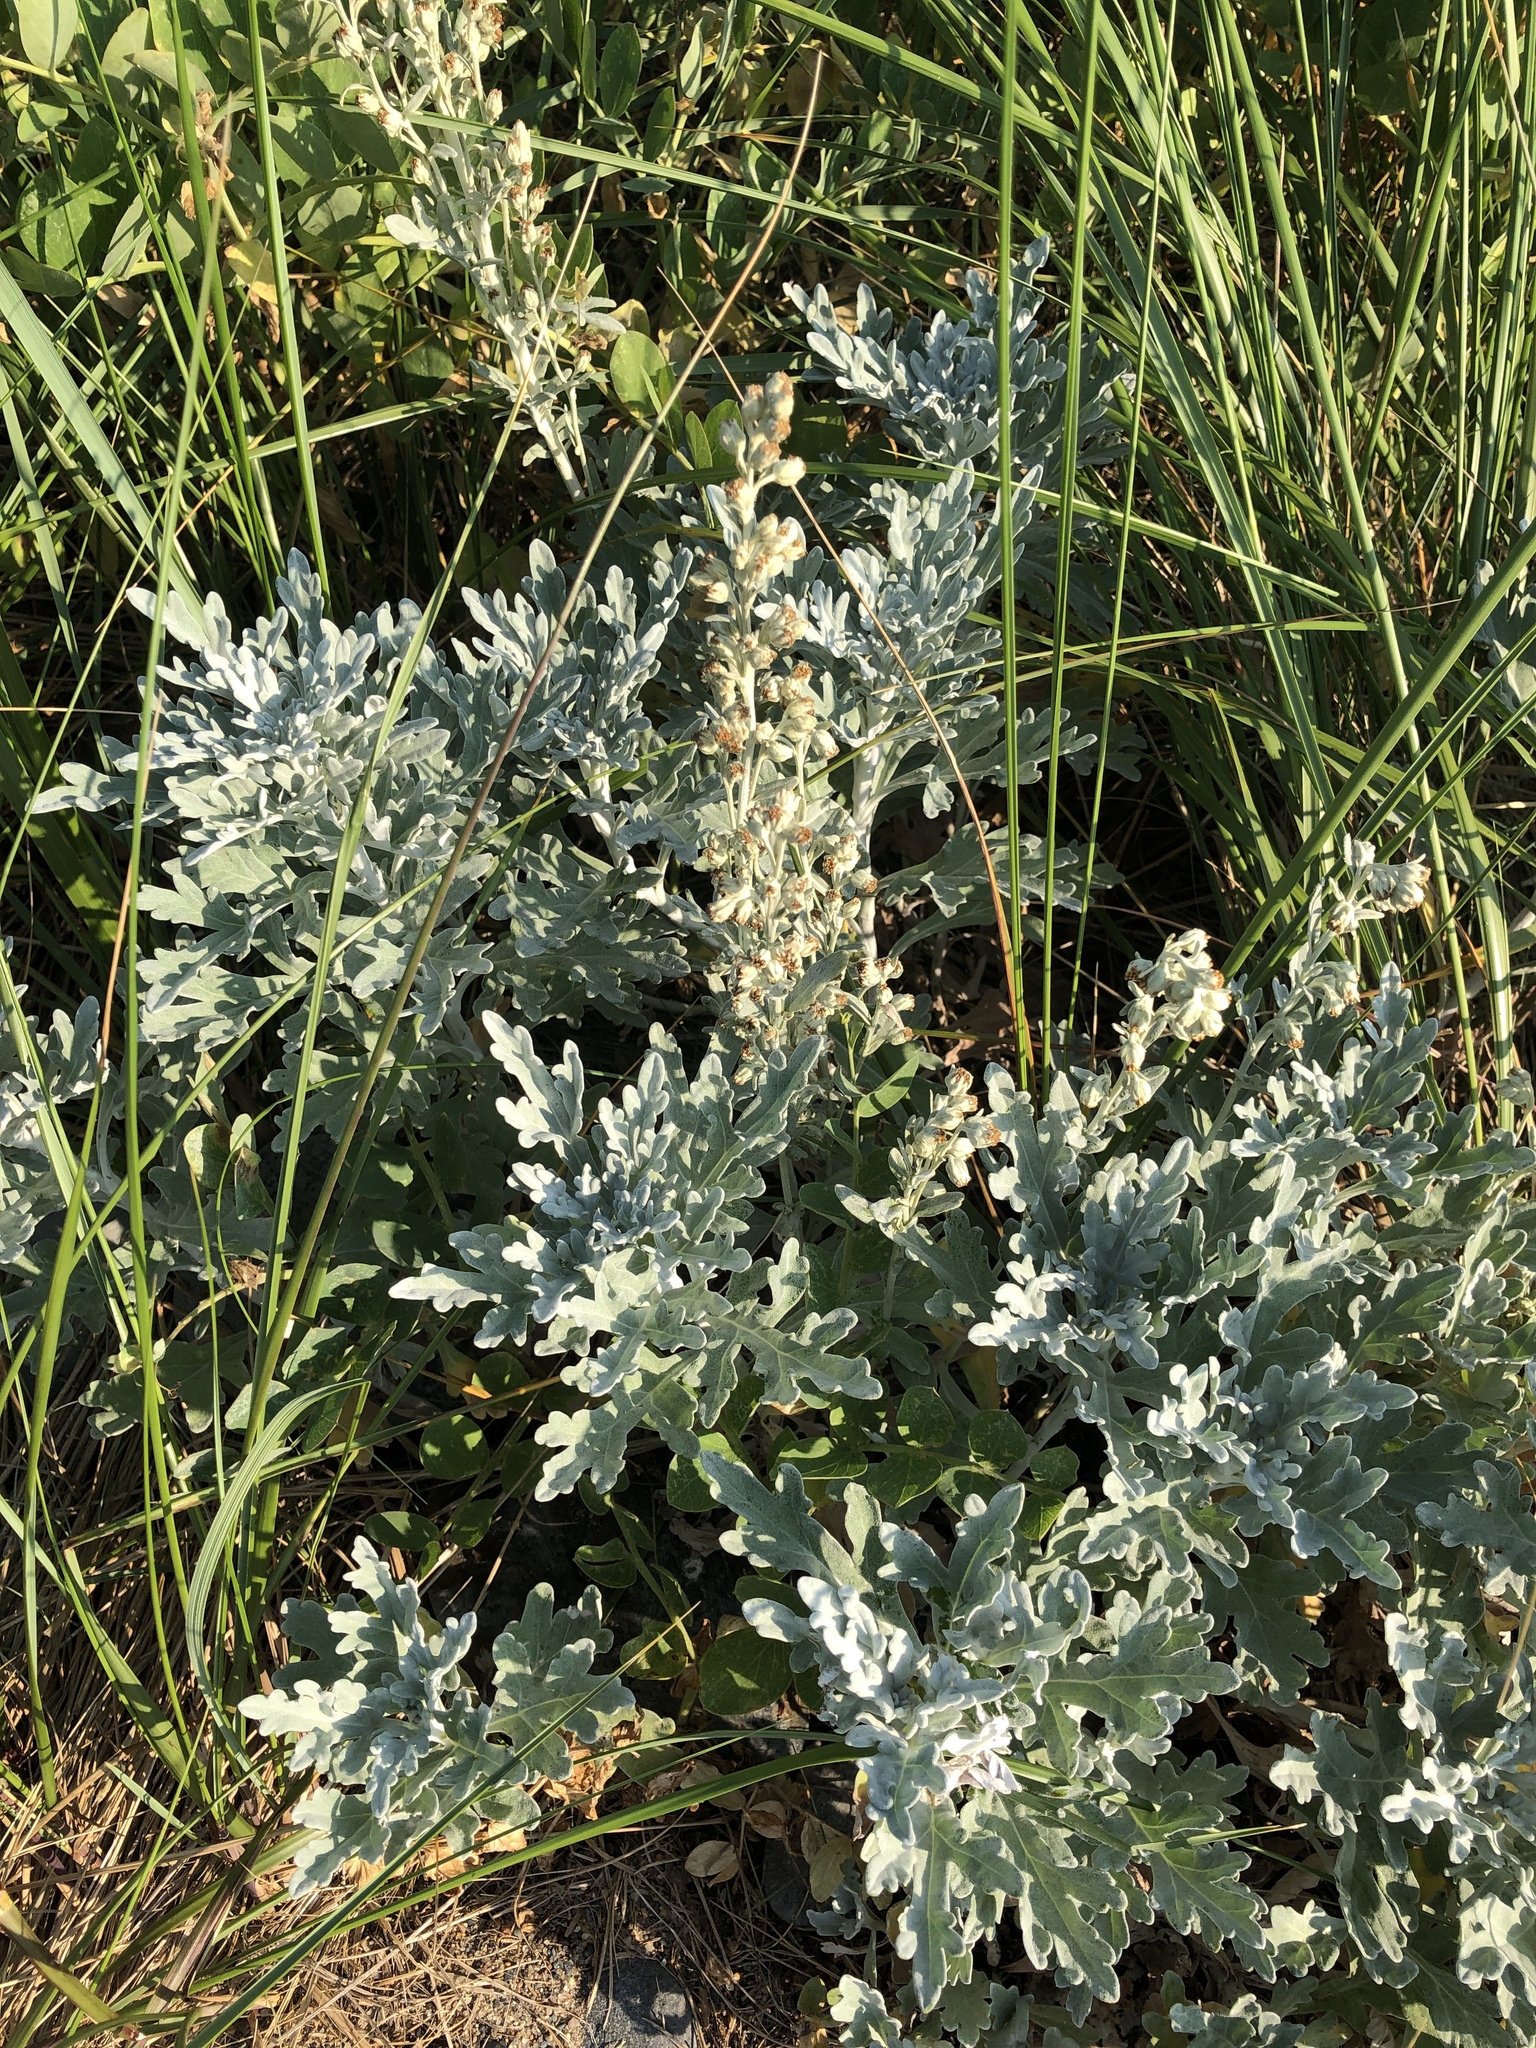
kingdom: Plantae
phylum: Tracheophyta
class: Magnoliopsida
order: Asterales
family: Asteraceae
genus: Artemisia
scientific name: Artemisia stelleriana
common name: Beach wormwood
